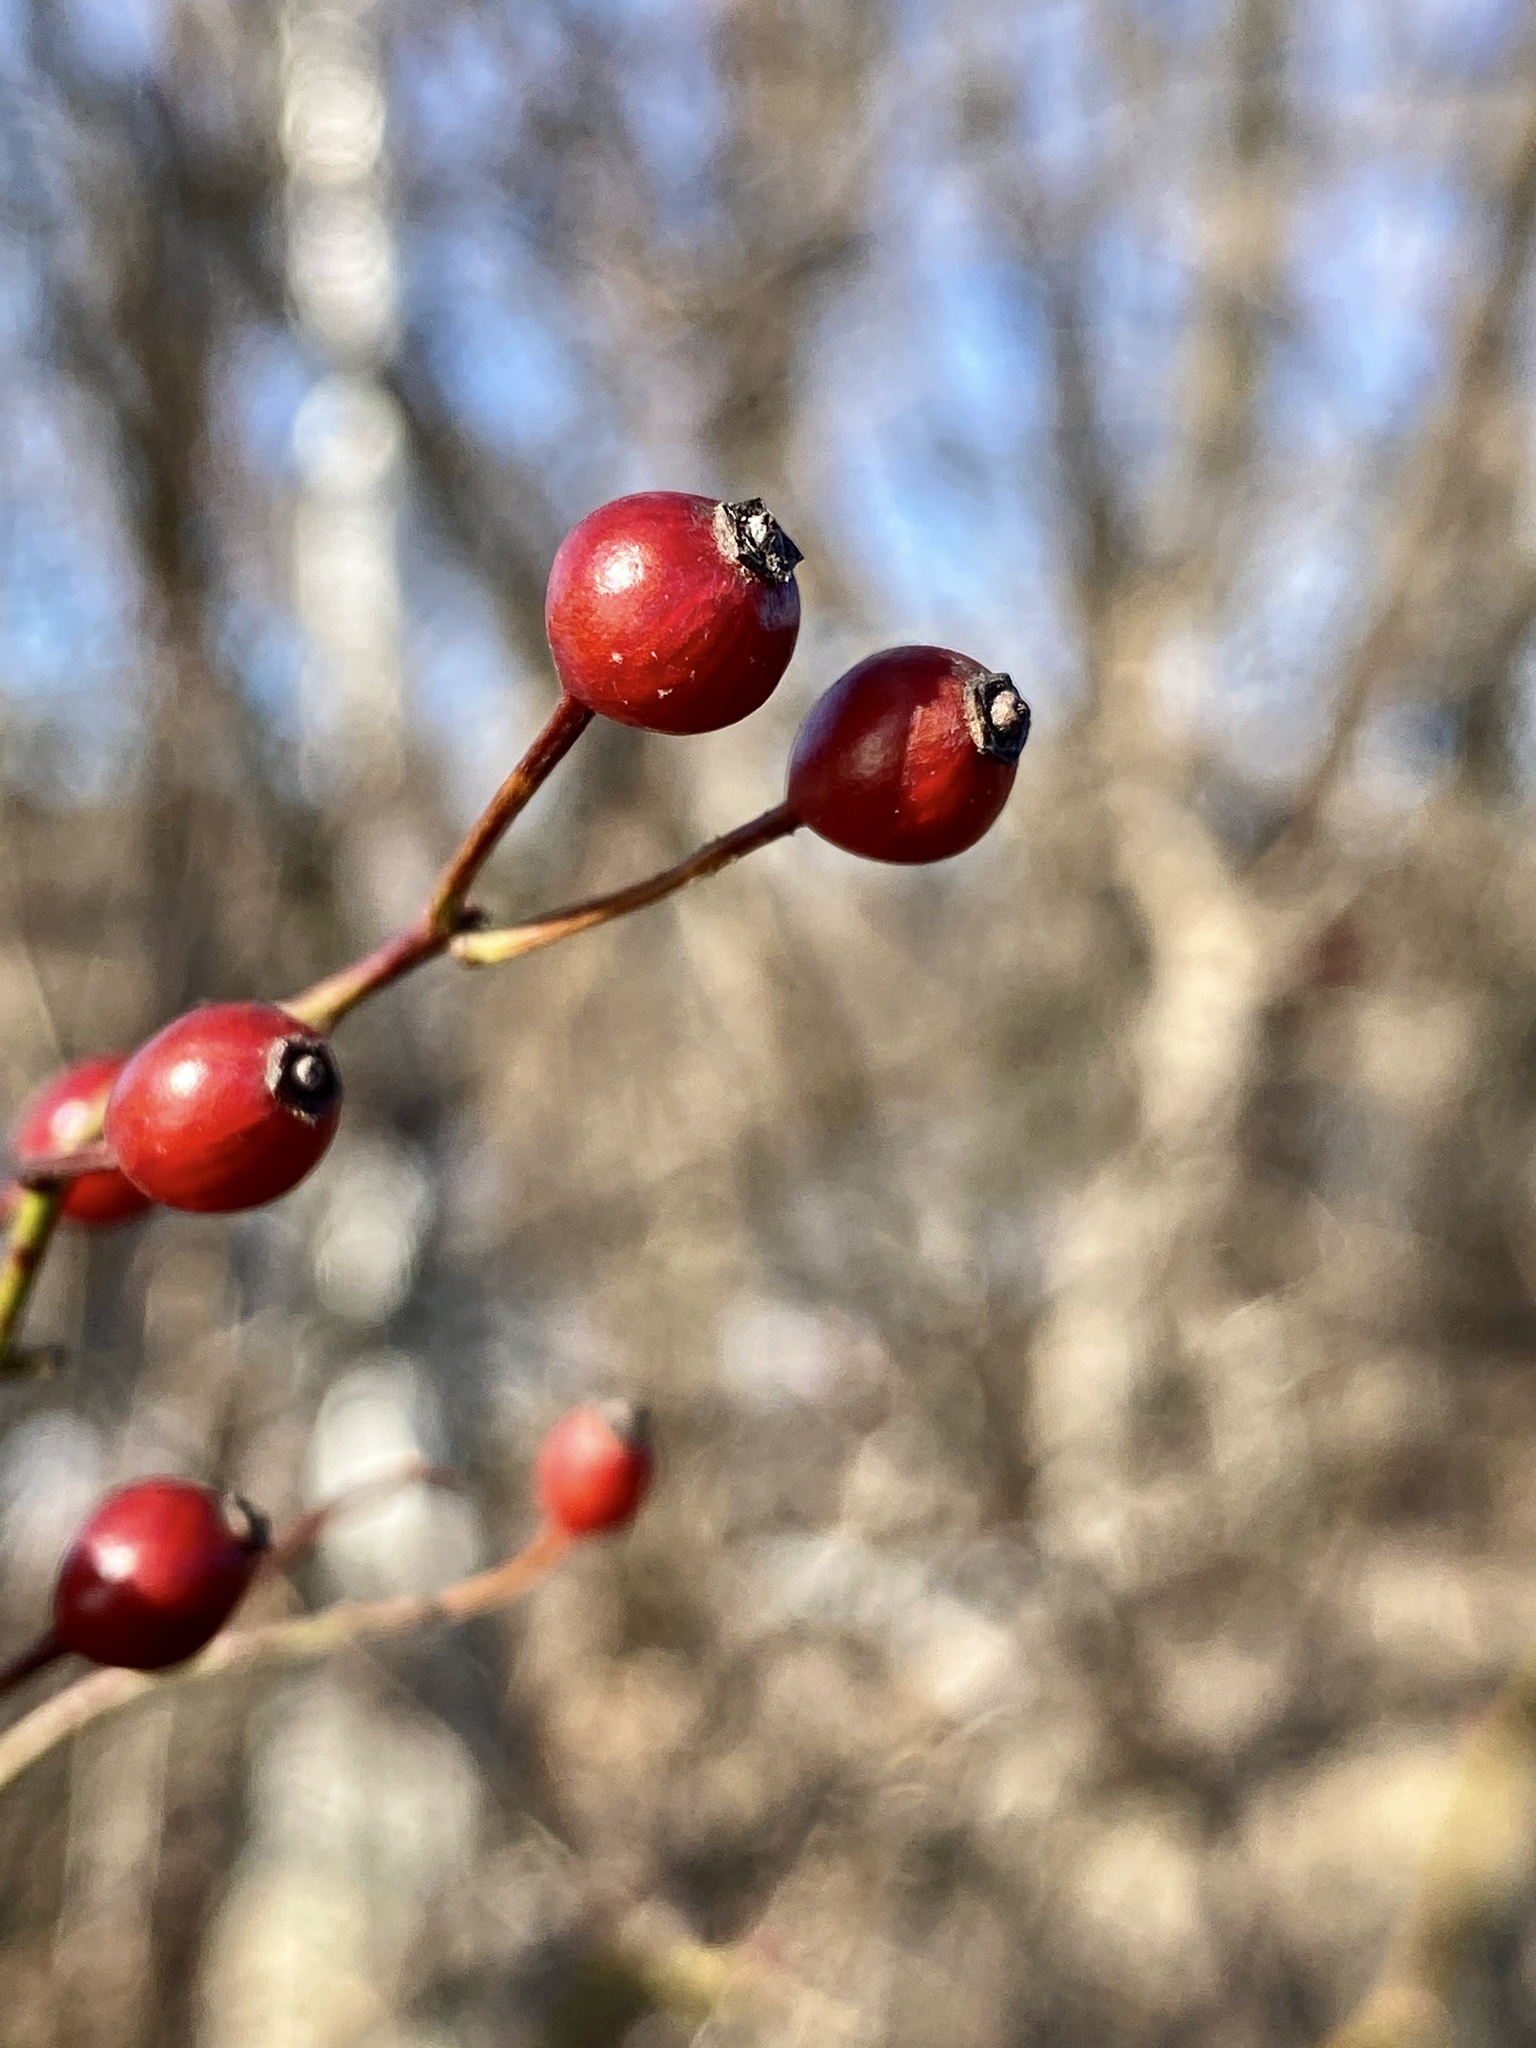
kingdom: Plantae
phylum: Tracheophyta
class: Magnoliopsida
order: Rosales
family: Rosaceae
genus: Rosa
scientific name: Rosa multiflora
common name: Multiflora rose
